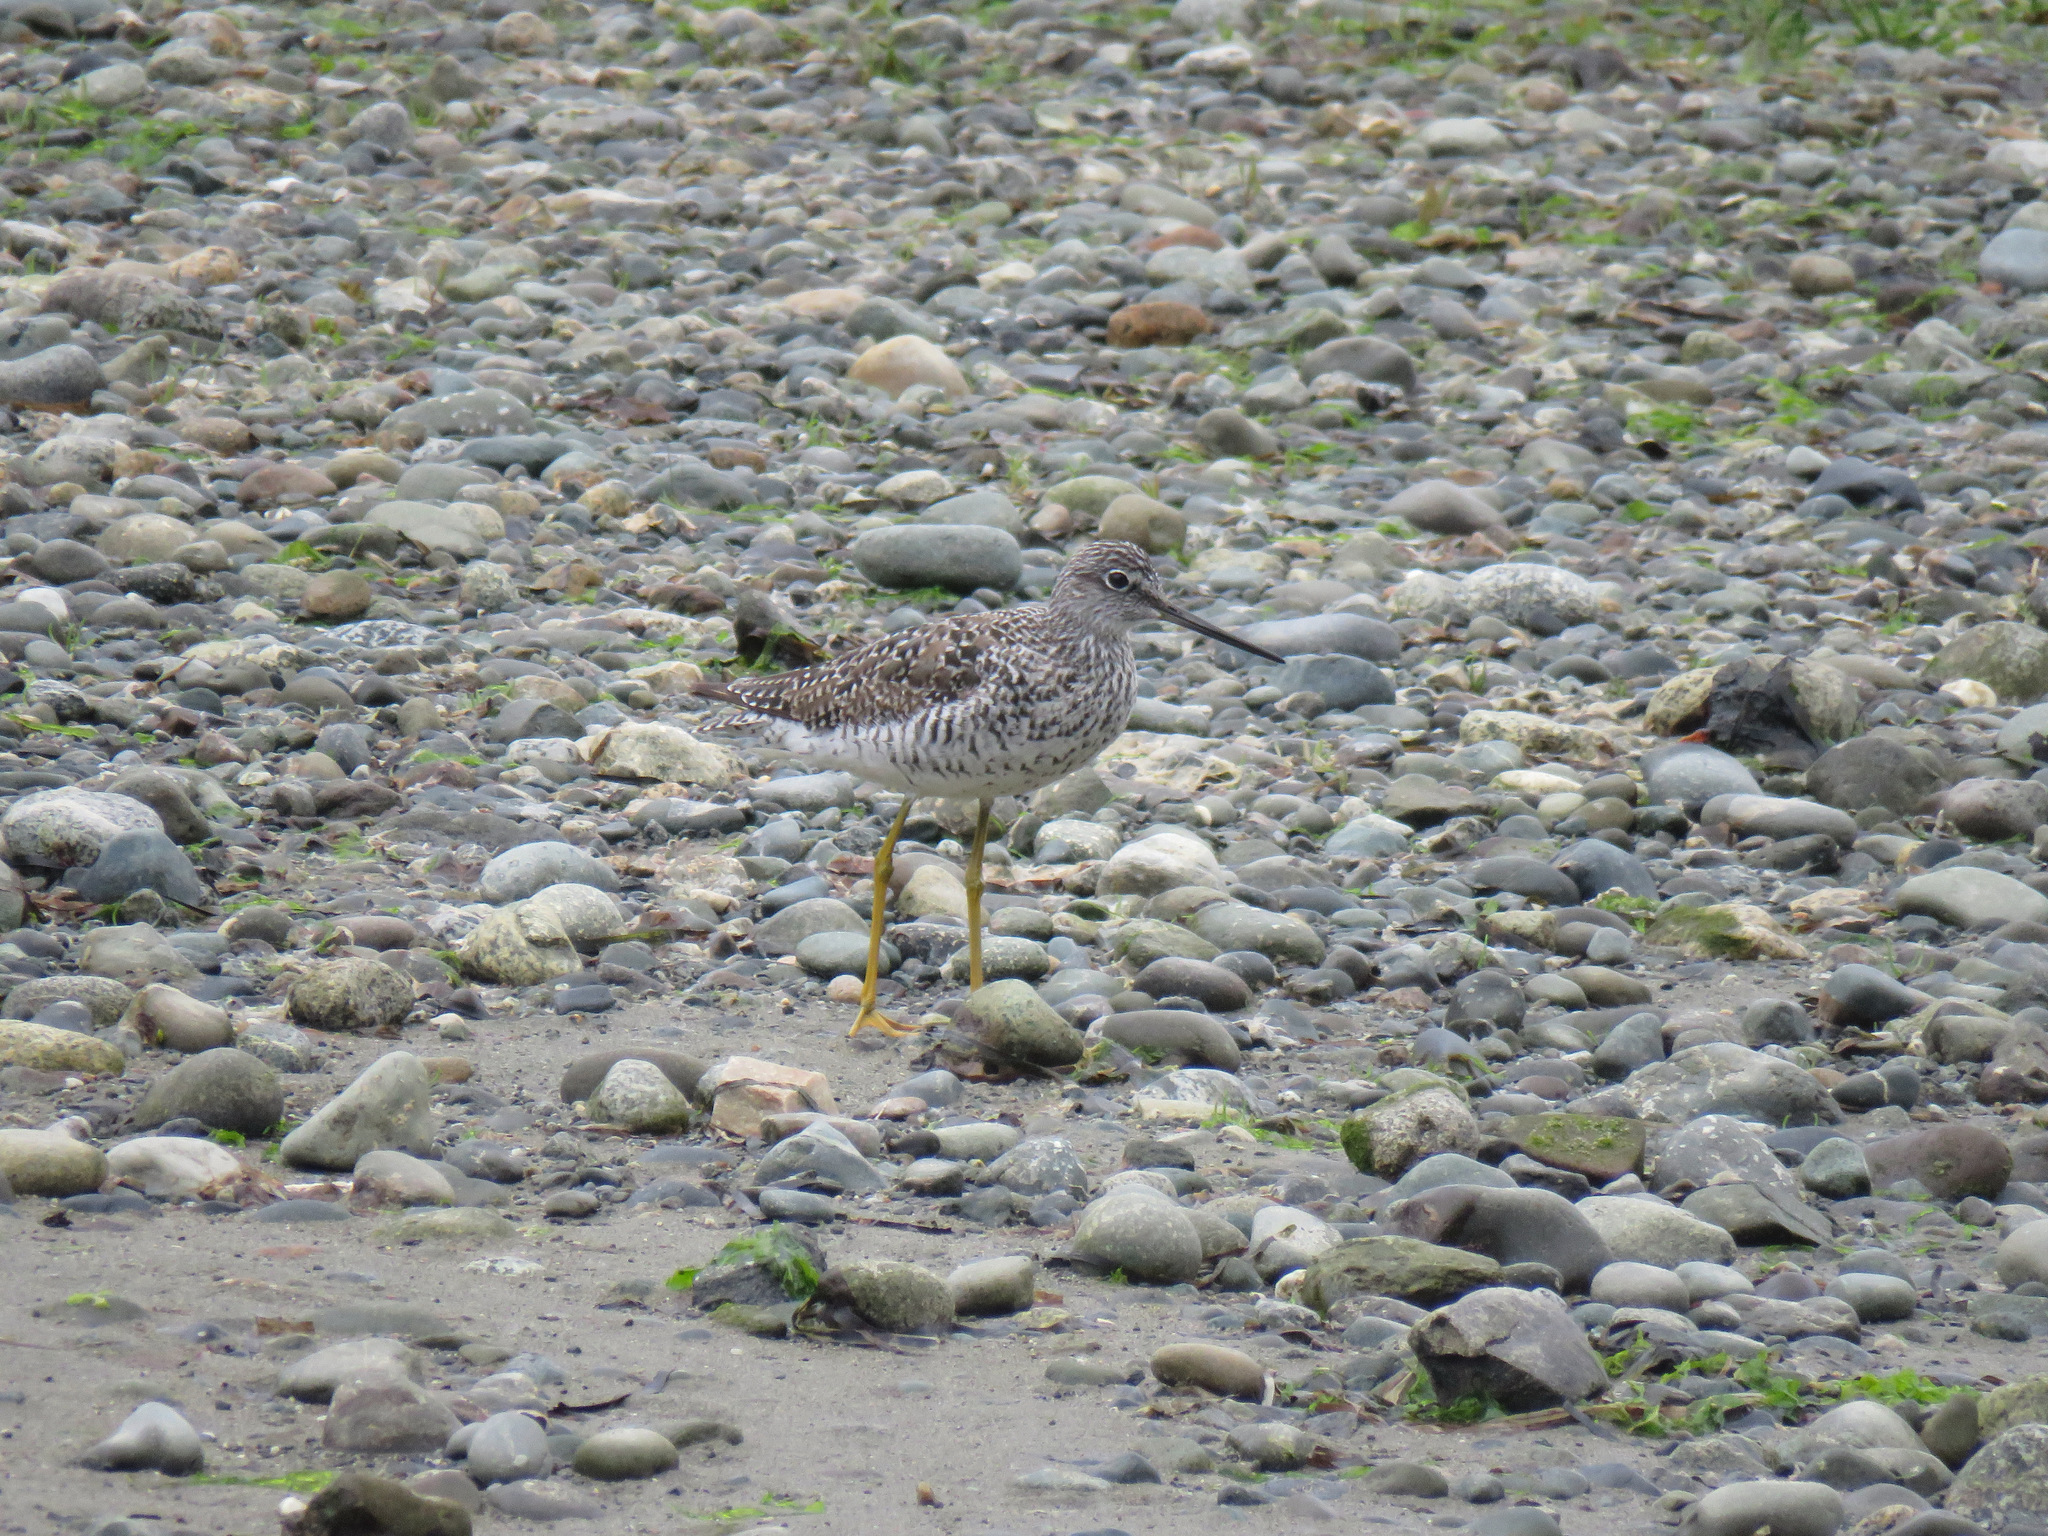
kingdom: Animalia
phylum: Chordata
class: Aves
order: Charadriiformes
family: Scolopacidae
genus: Tringa
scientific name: Tringa melanoleuca
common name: Greater yellowlegs
